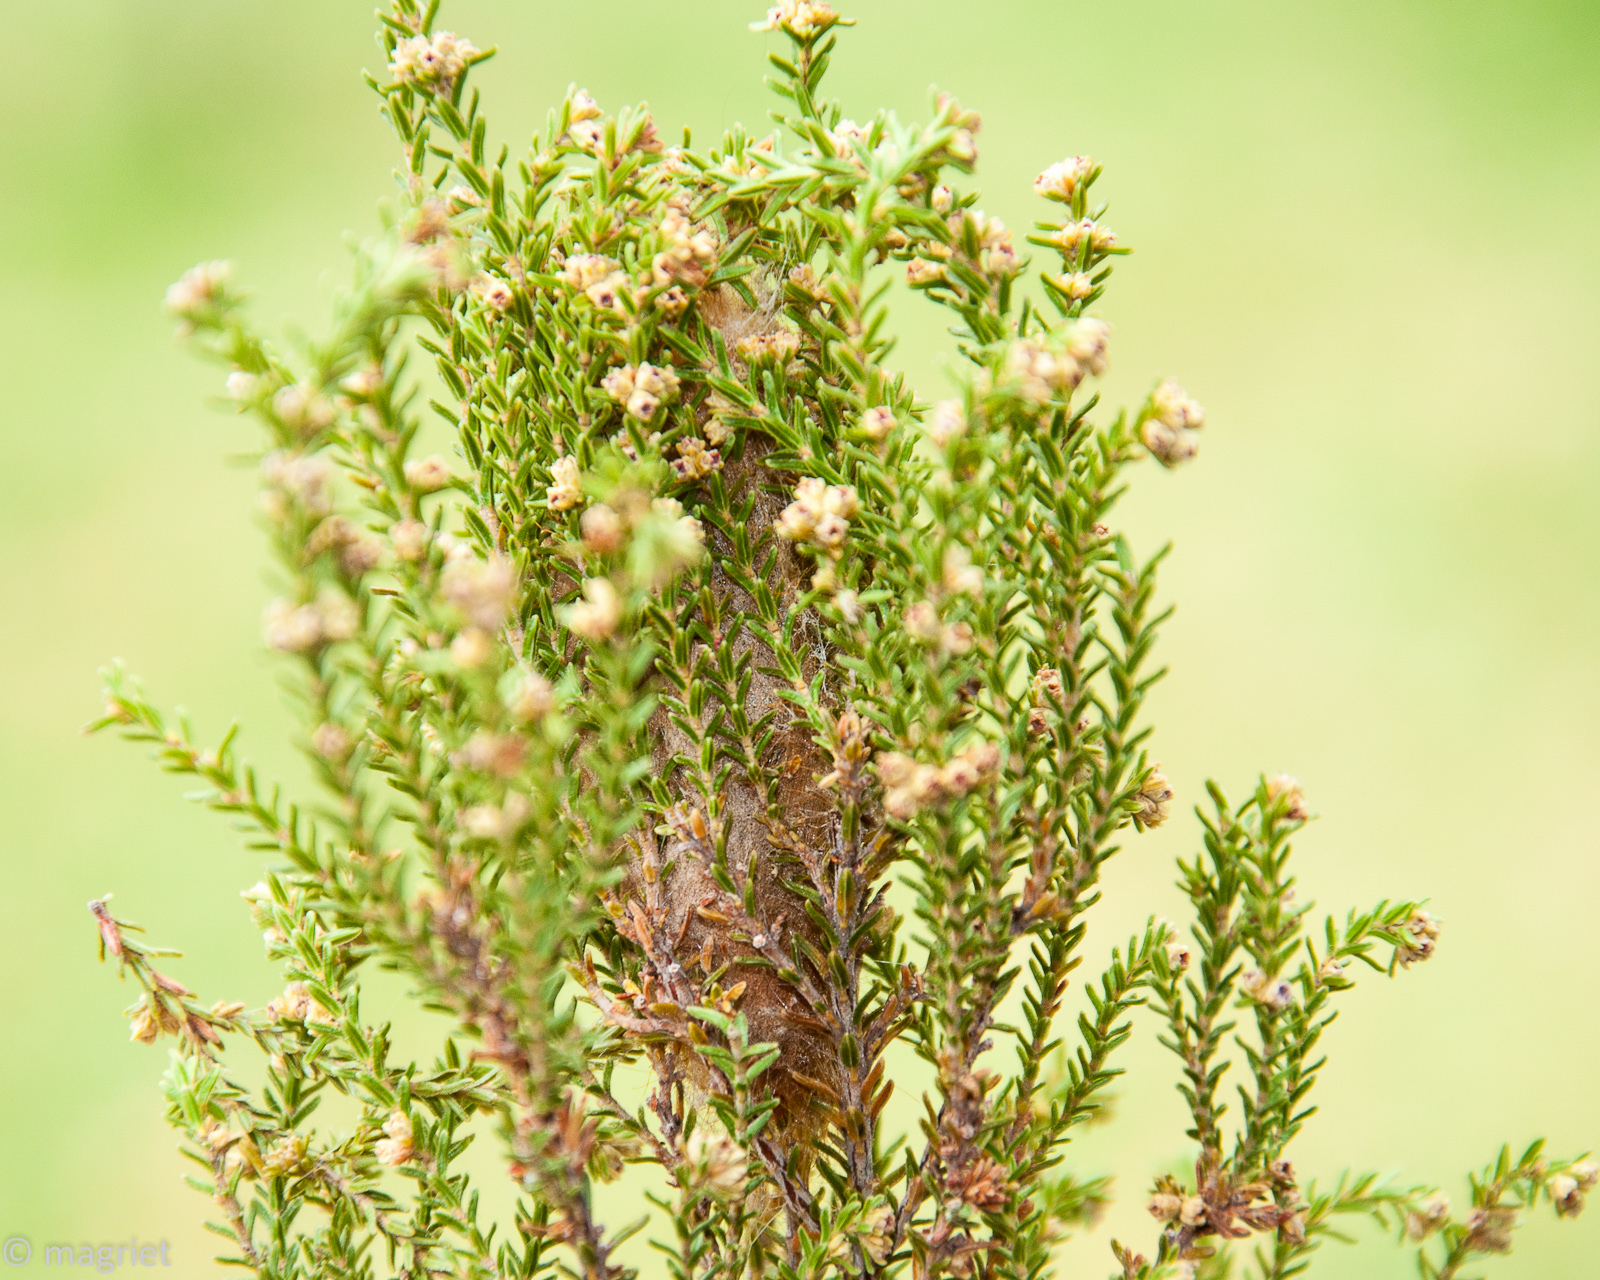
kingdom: Animalia
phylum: Arthropoda
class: Insecta
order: Lepidoptera
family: Lasiocampidae
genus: Eutricha
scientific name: Eutricha bifascia
